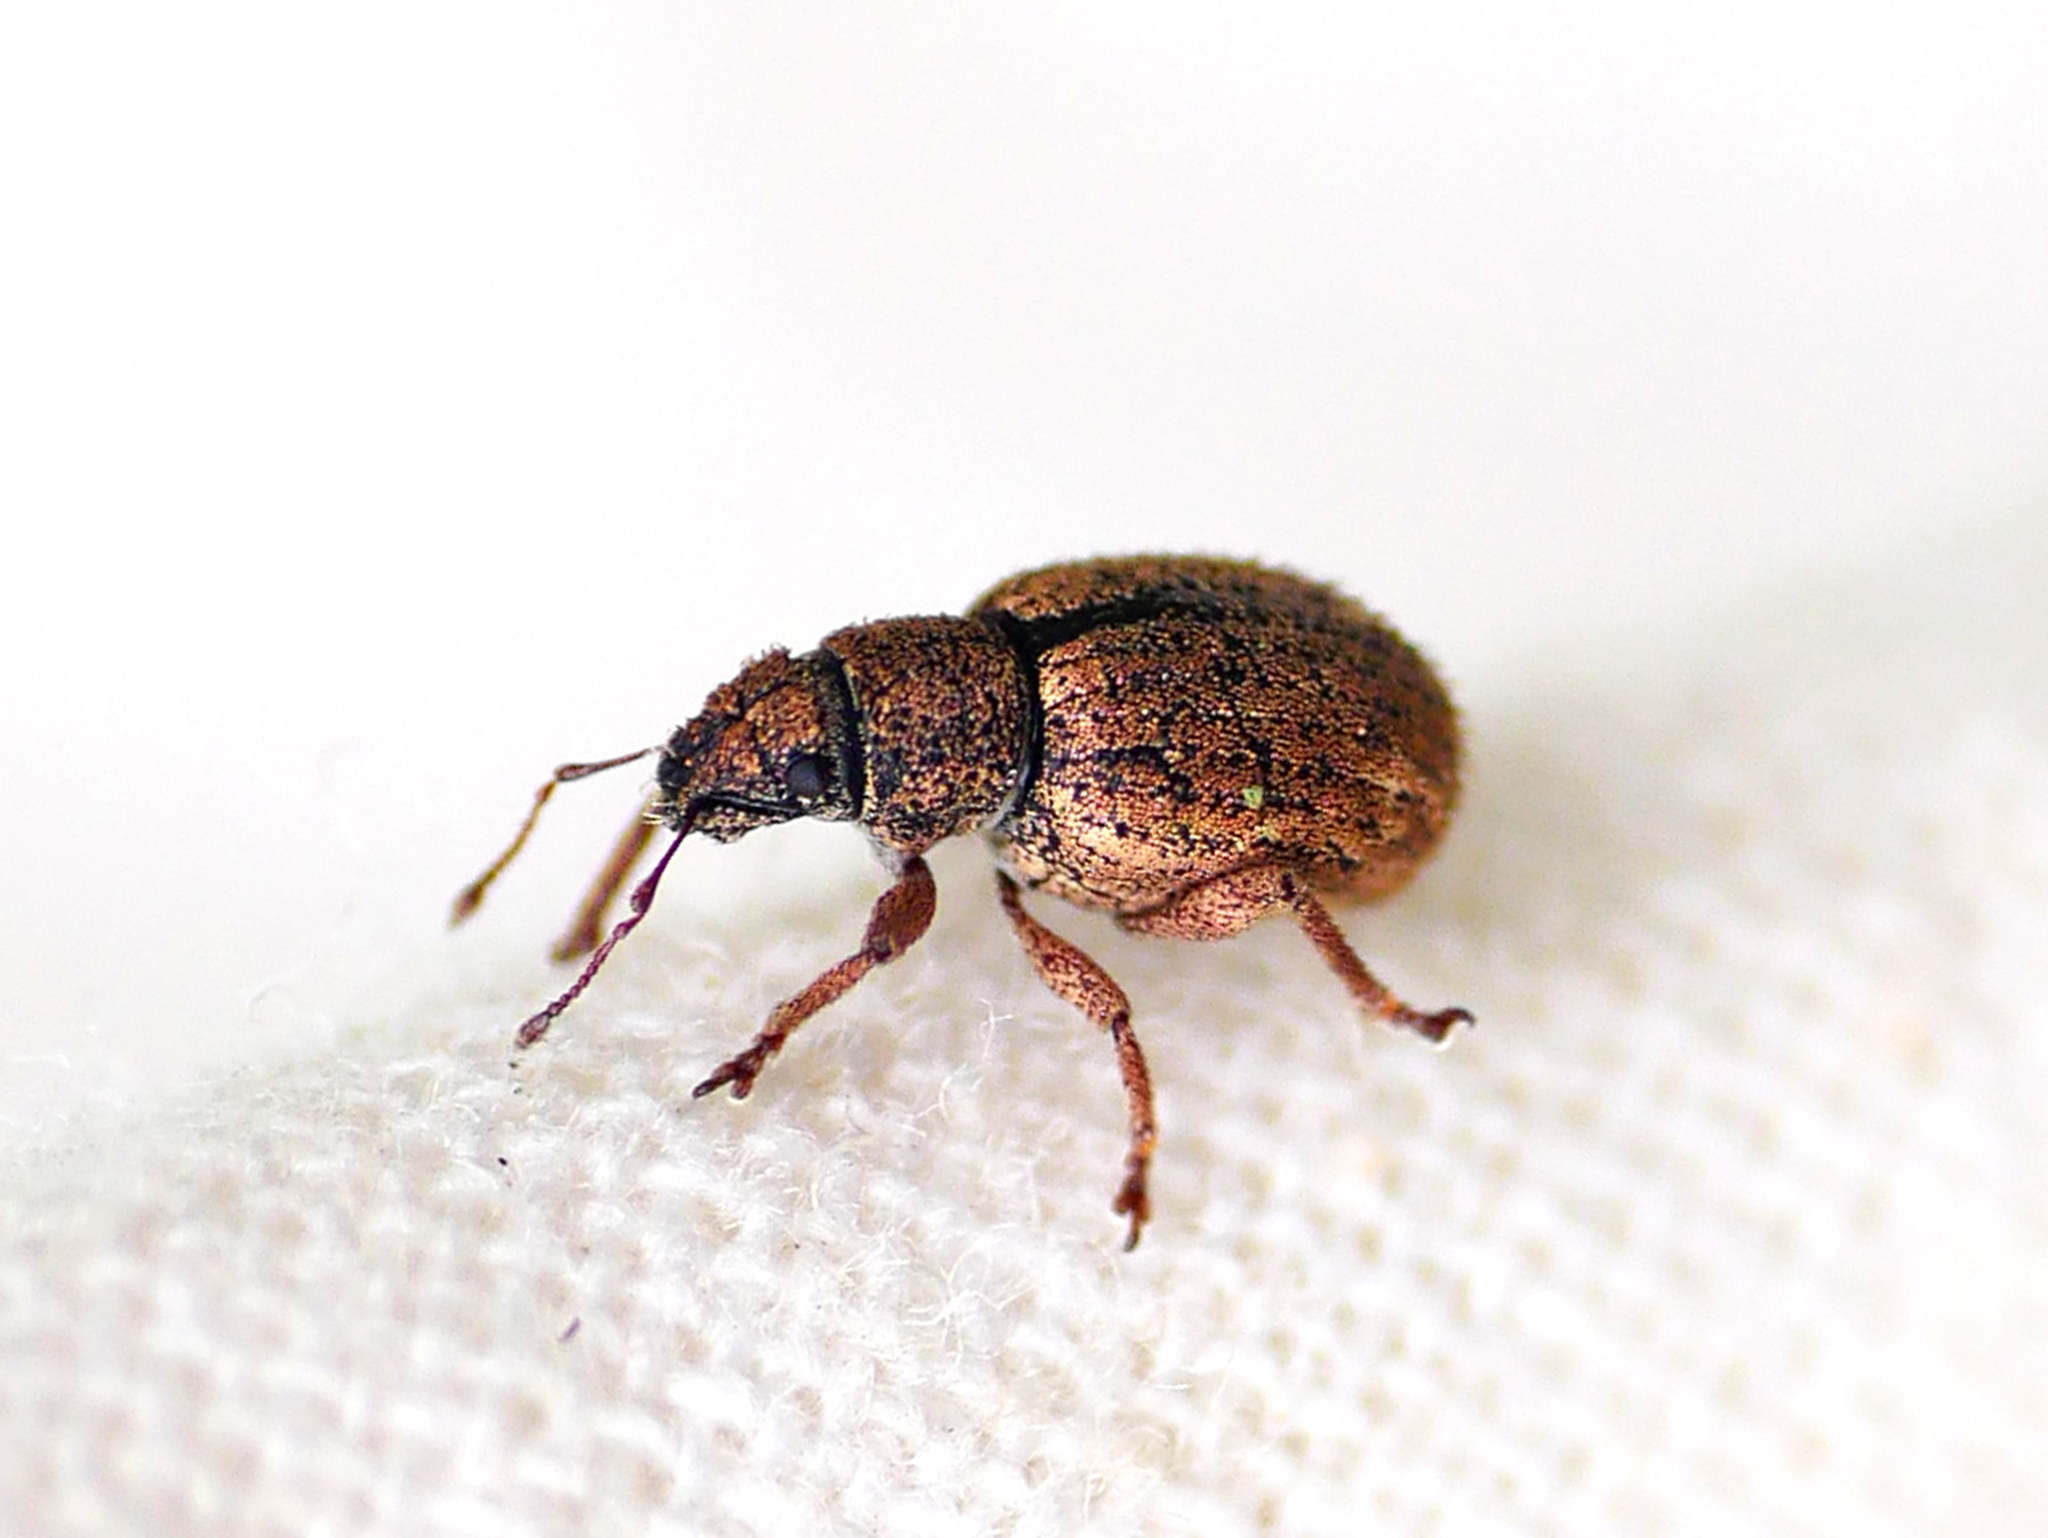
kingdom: Animalia
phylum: Arthropoda
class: Insecta
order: Coleoptera
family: Curculionidae
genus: Strophosoma
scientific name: Strophosoma melanogrammum
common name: Weevil
